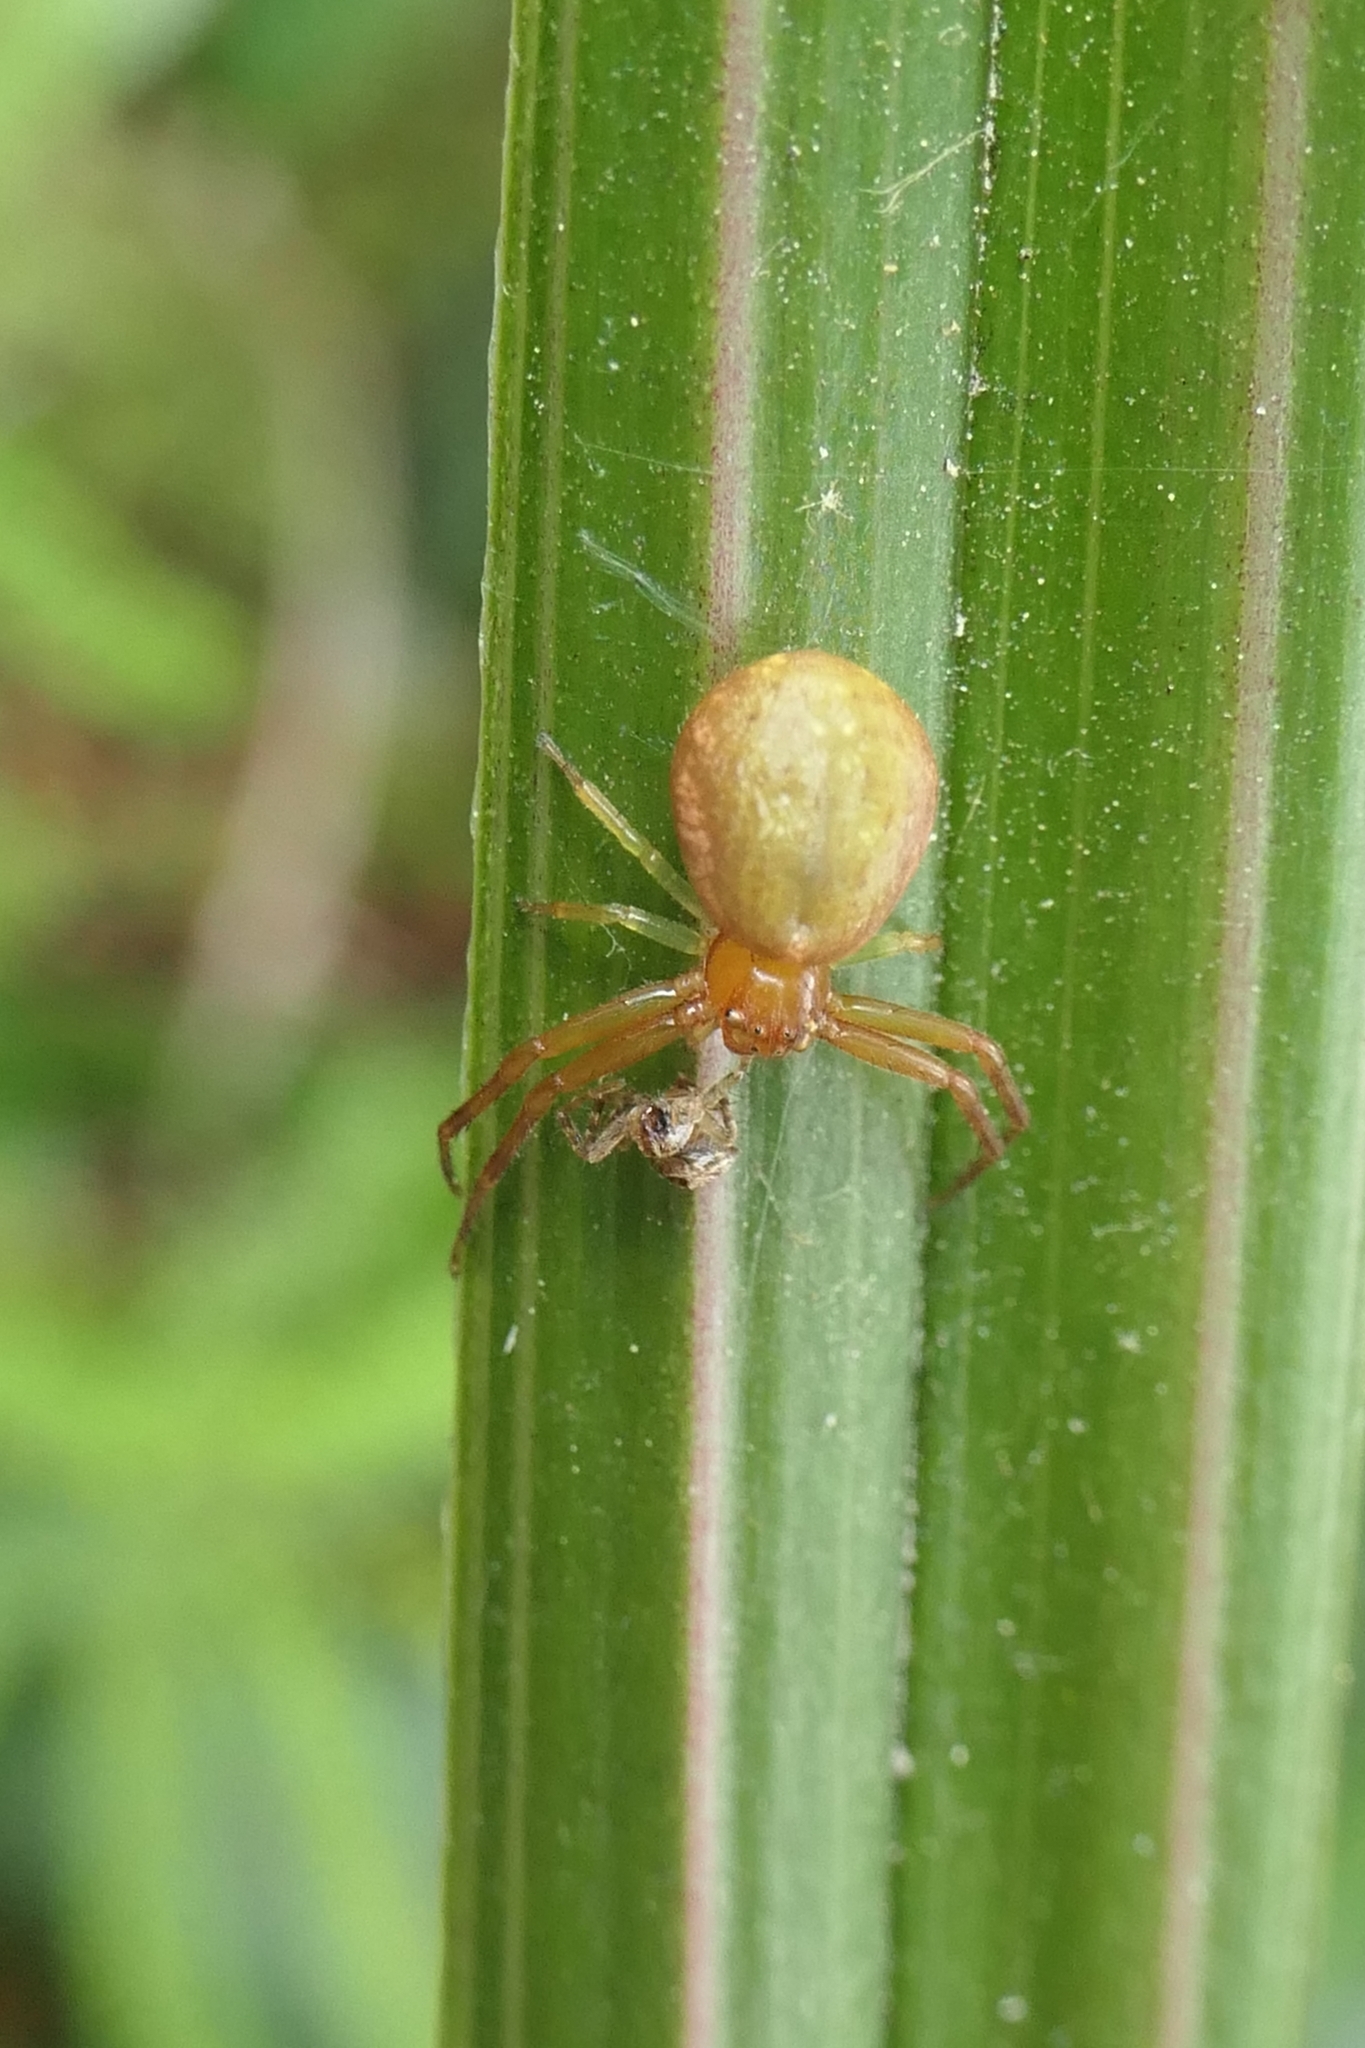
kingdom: Animalia
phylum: Arthropoda
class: Arachnida
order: Araneae
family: Thomisidae
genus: Diaea
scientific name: Diaea ambara
